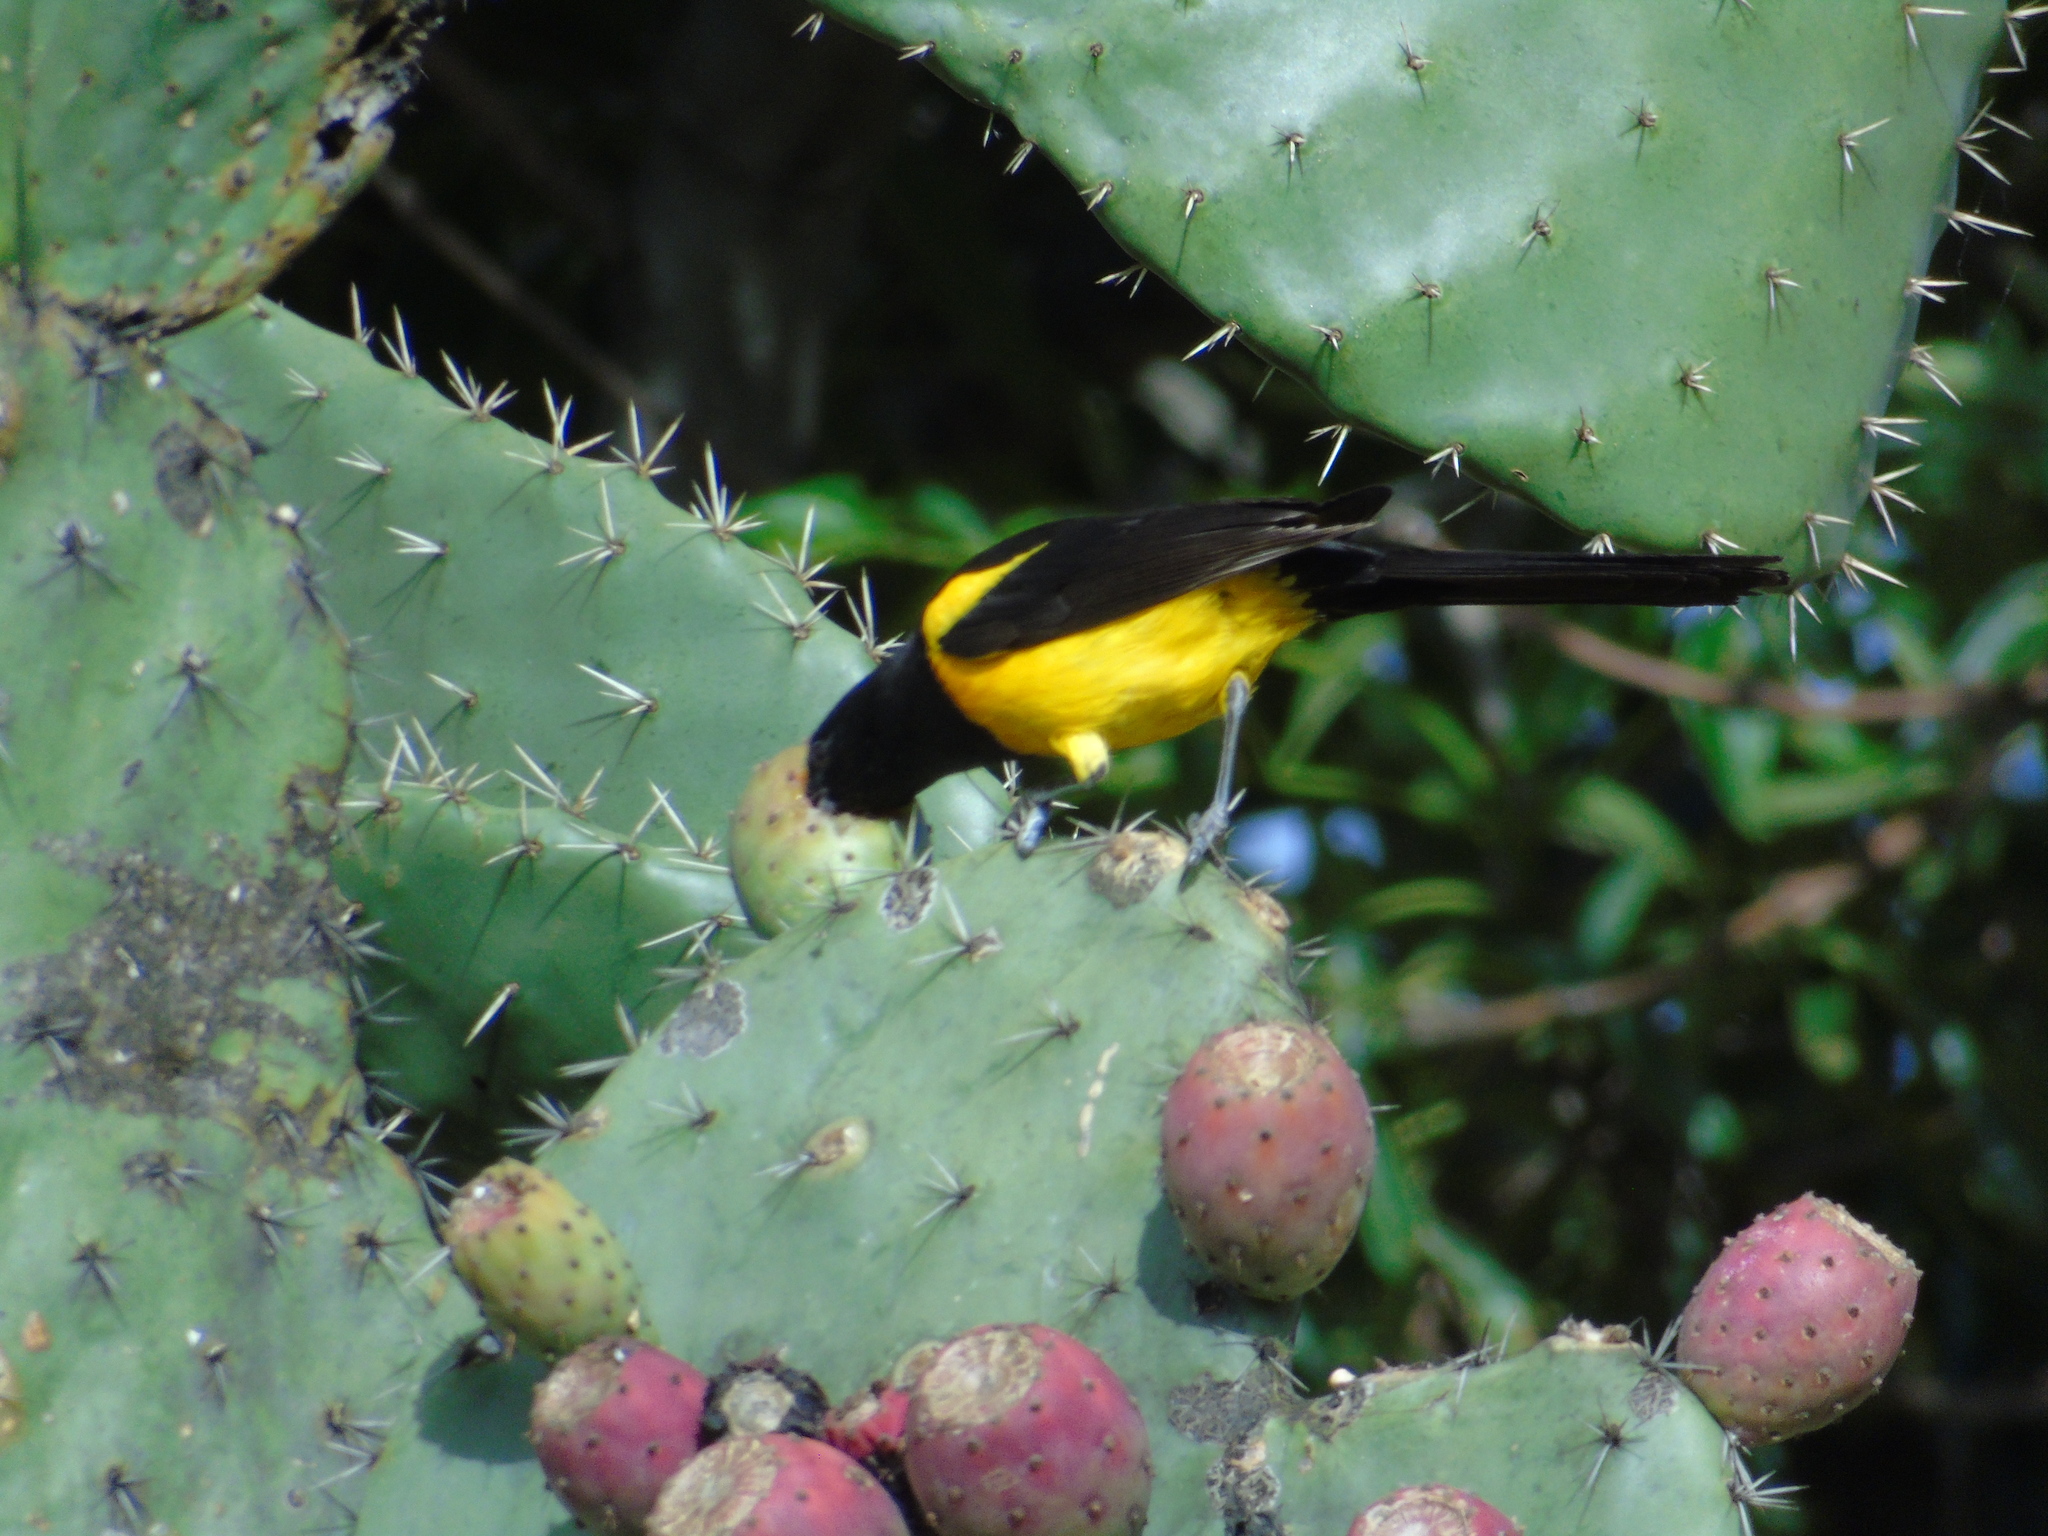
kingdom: Animalia
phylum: Chordata
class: Aves
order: Passeriformes
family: Icteridae
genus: Icterus
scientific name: Icterus wagleri
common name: Black-vented oriole
